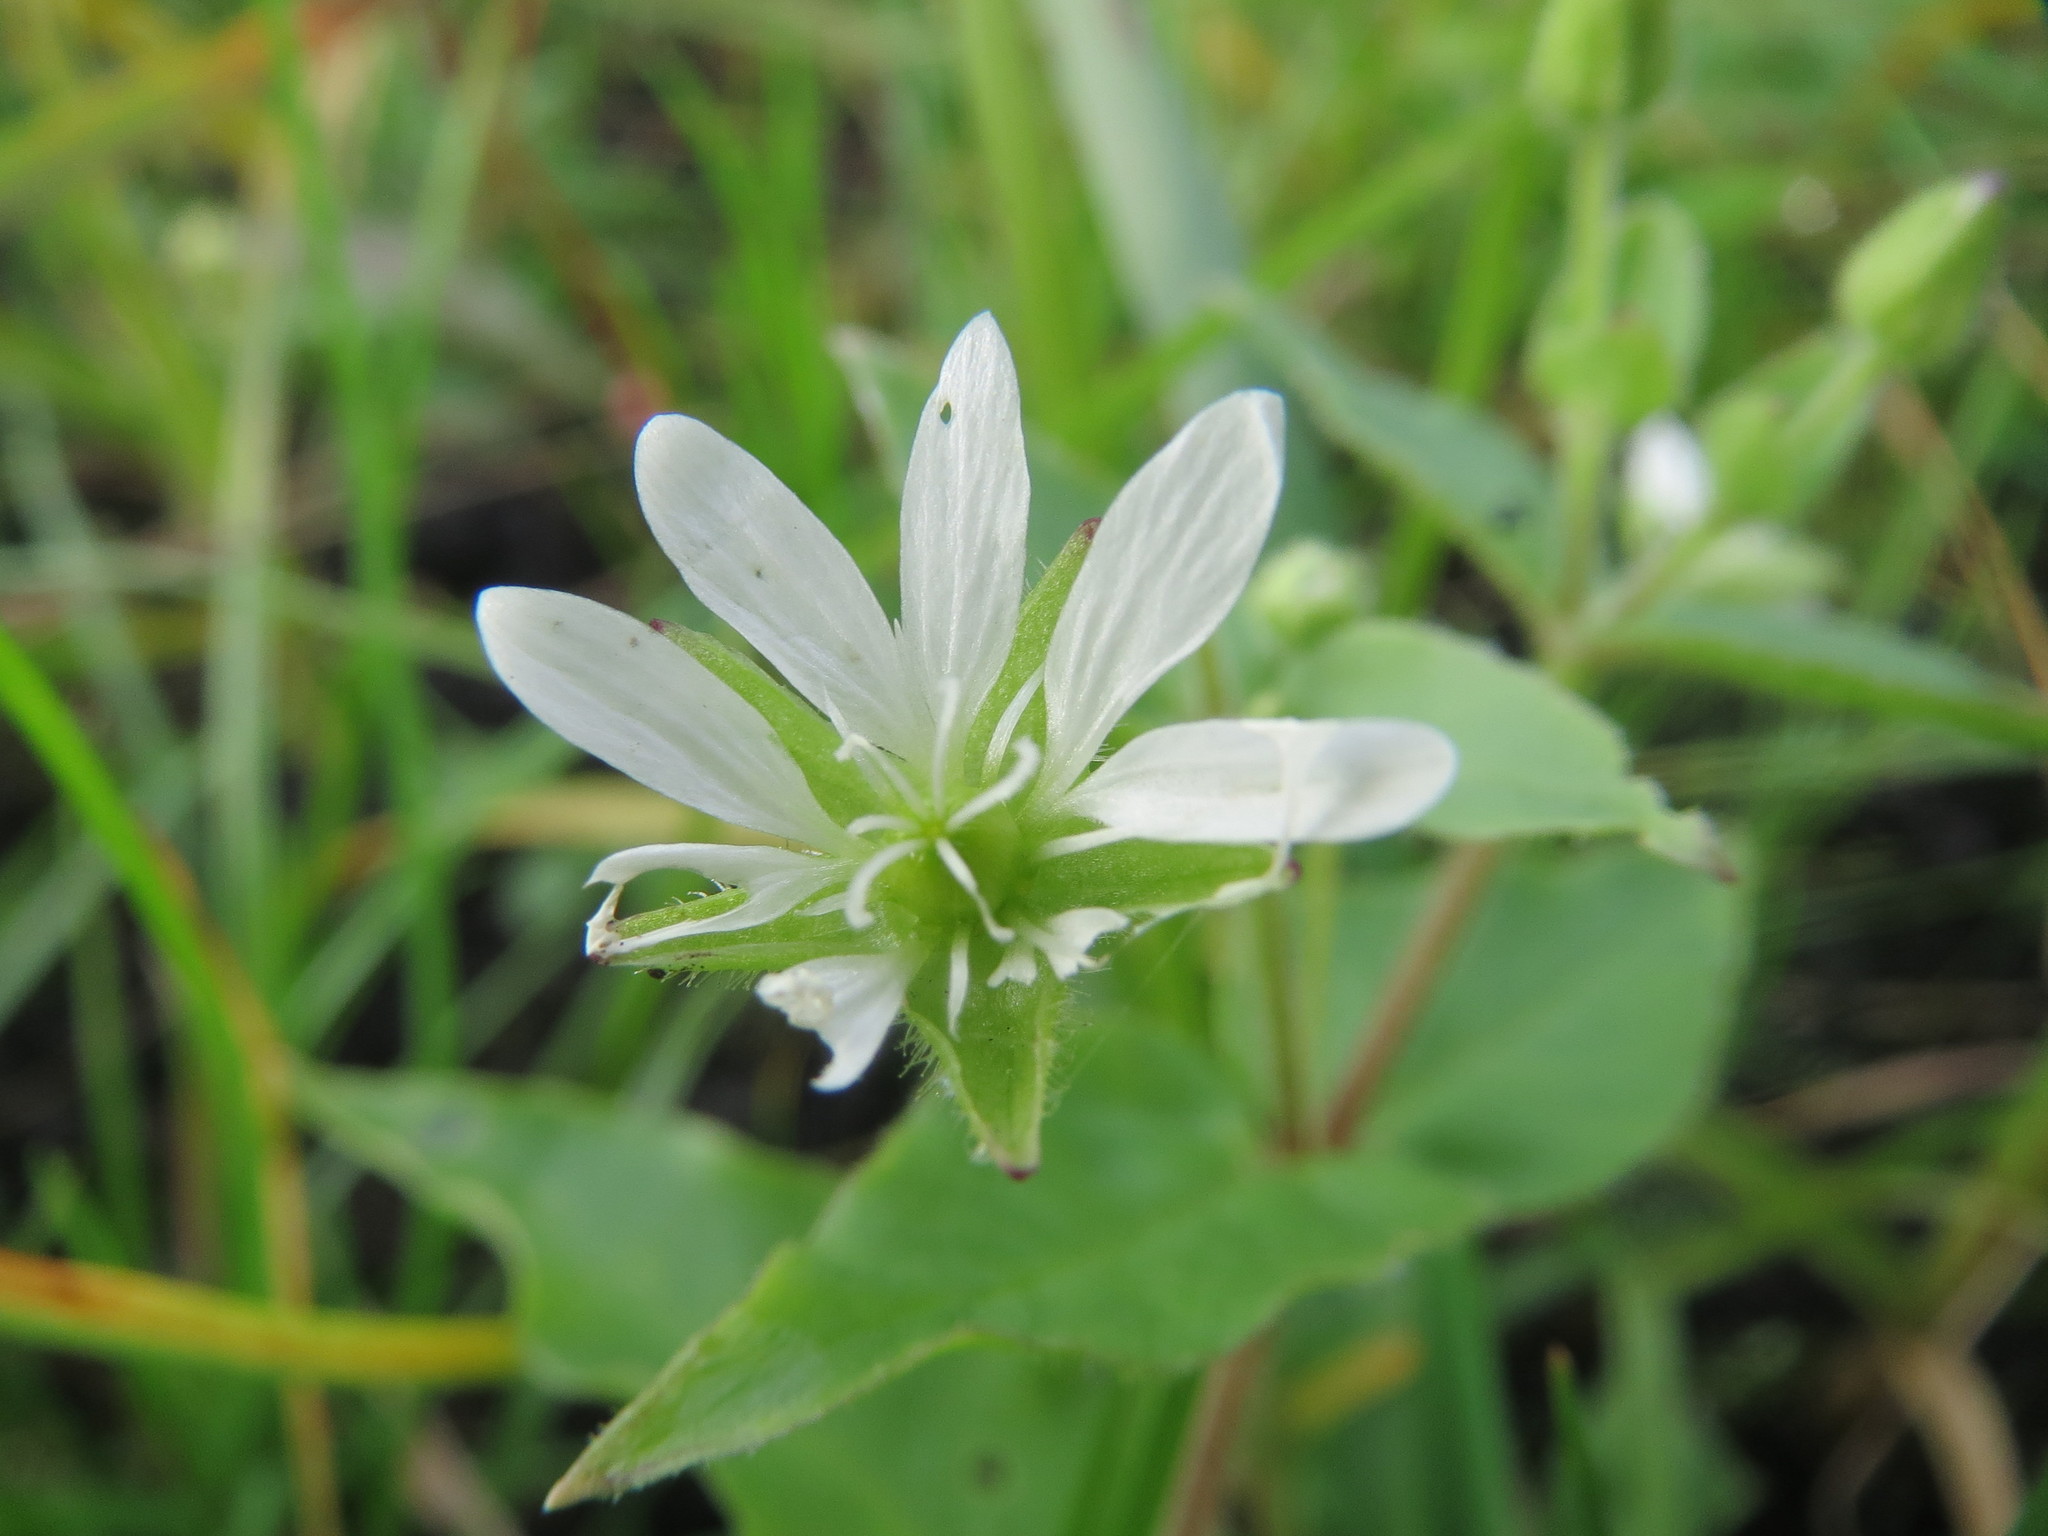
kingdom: Plantae
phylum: Tracheophyta
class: Magnoliopsida
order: Caryophyllales
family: Caryophyllaceae
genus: Stellaria
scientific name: Stellaria aquatica
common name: Water chickweed
